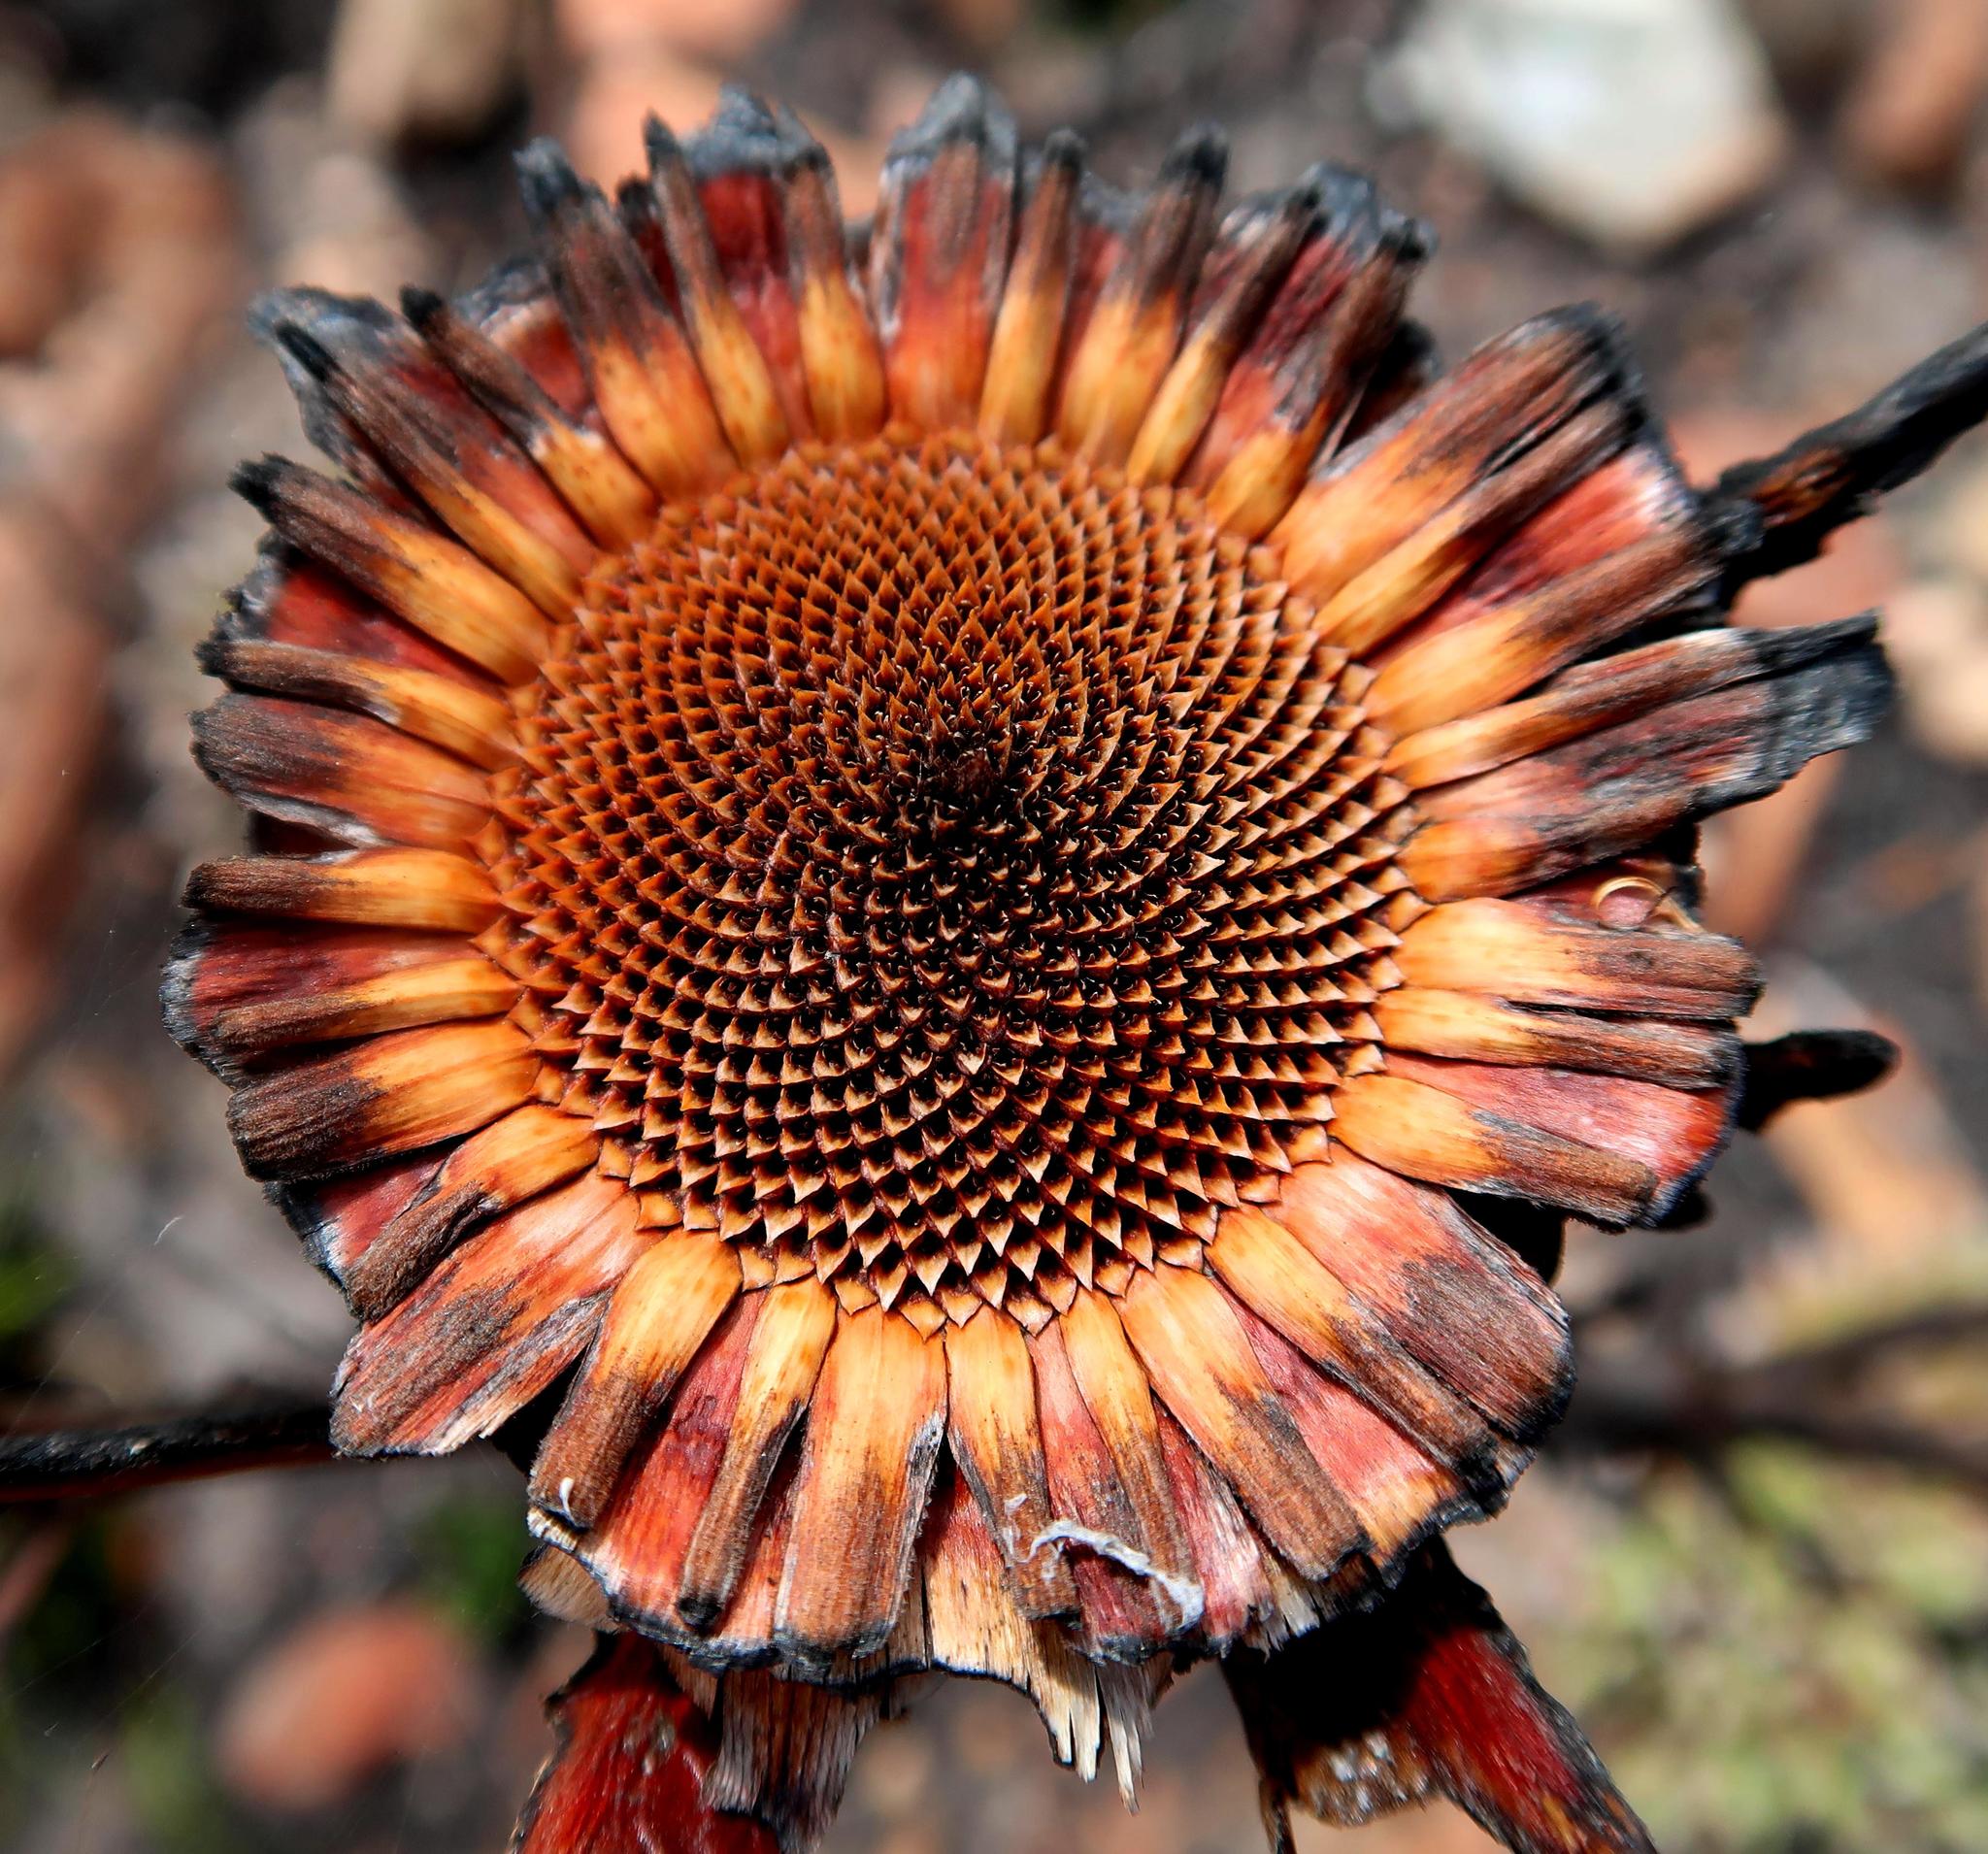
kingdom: Plantae
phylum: Tracheophyta
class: Magnoliopsida
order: Proteales
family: Proteaceae
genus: Protea
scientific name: Protea lorifolia
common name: Strap-leaved protea
